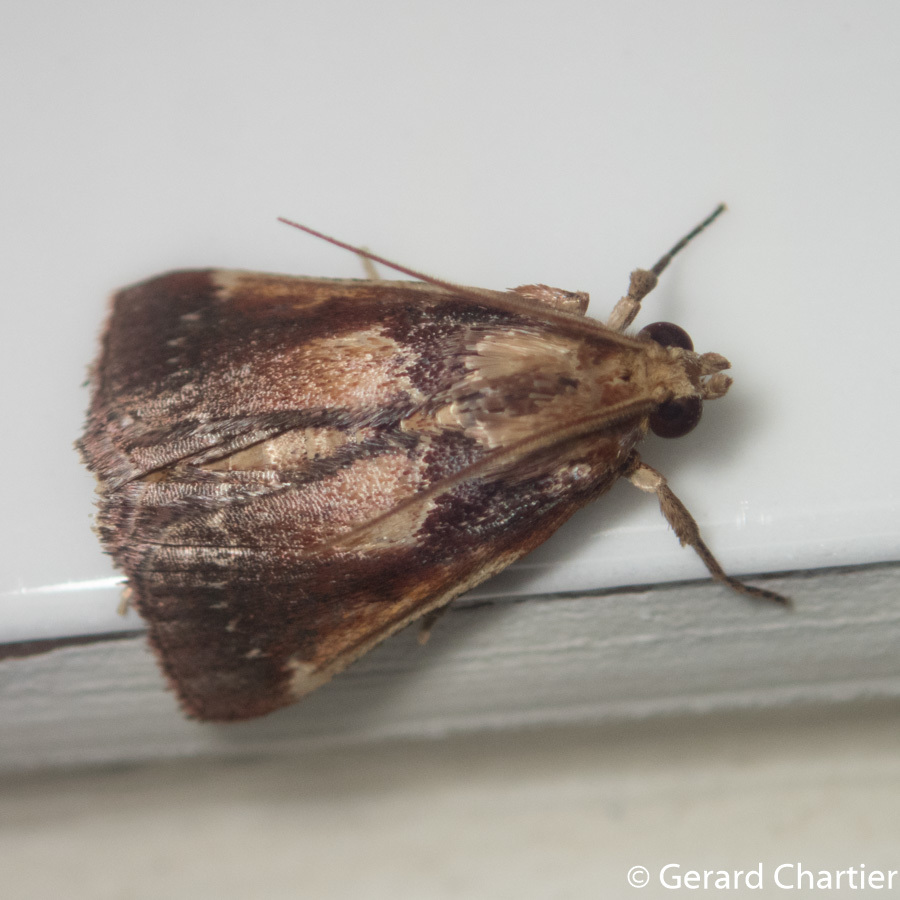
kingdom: Animalia
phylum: Arthropoda
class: Insecta
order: Lepidoptera
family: Pyralidae
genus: Hypanchyla
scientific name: Hypanchyla
